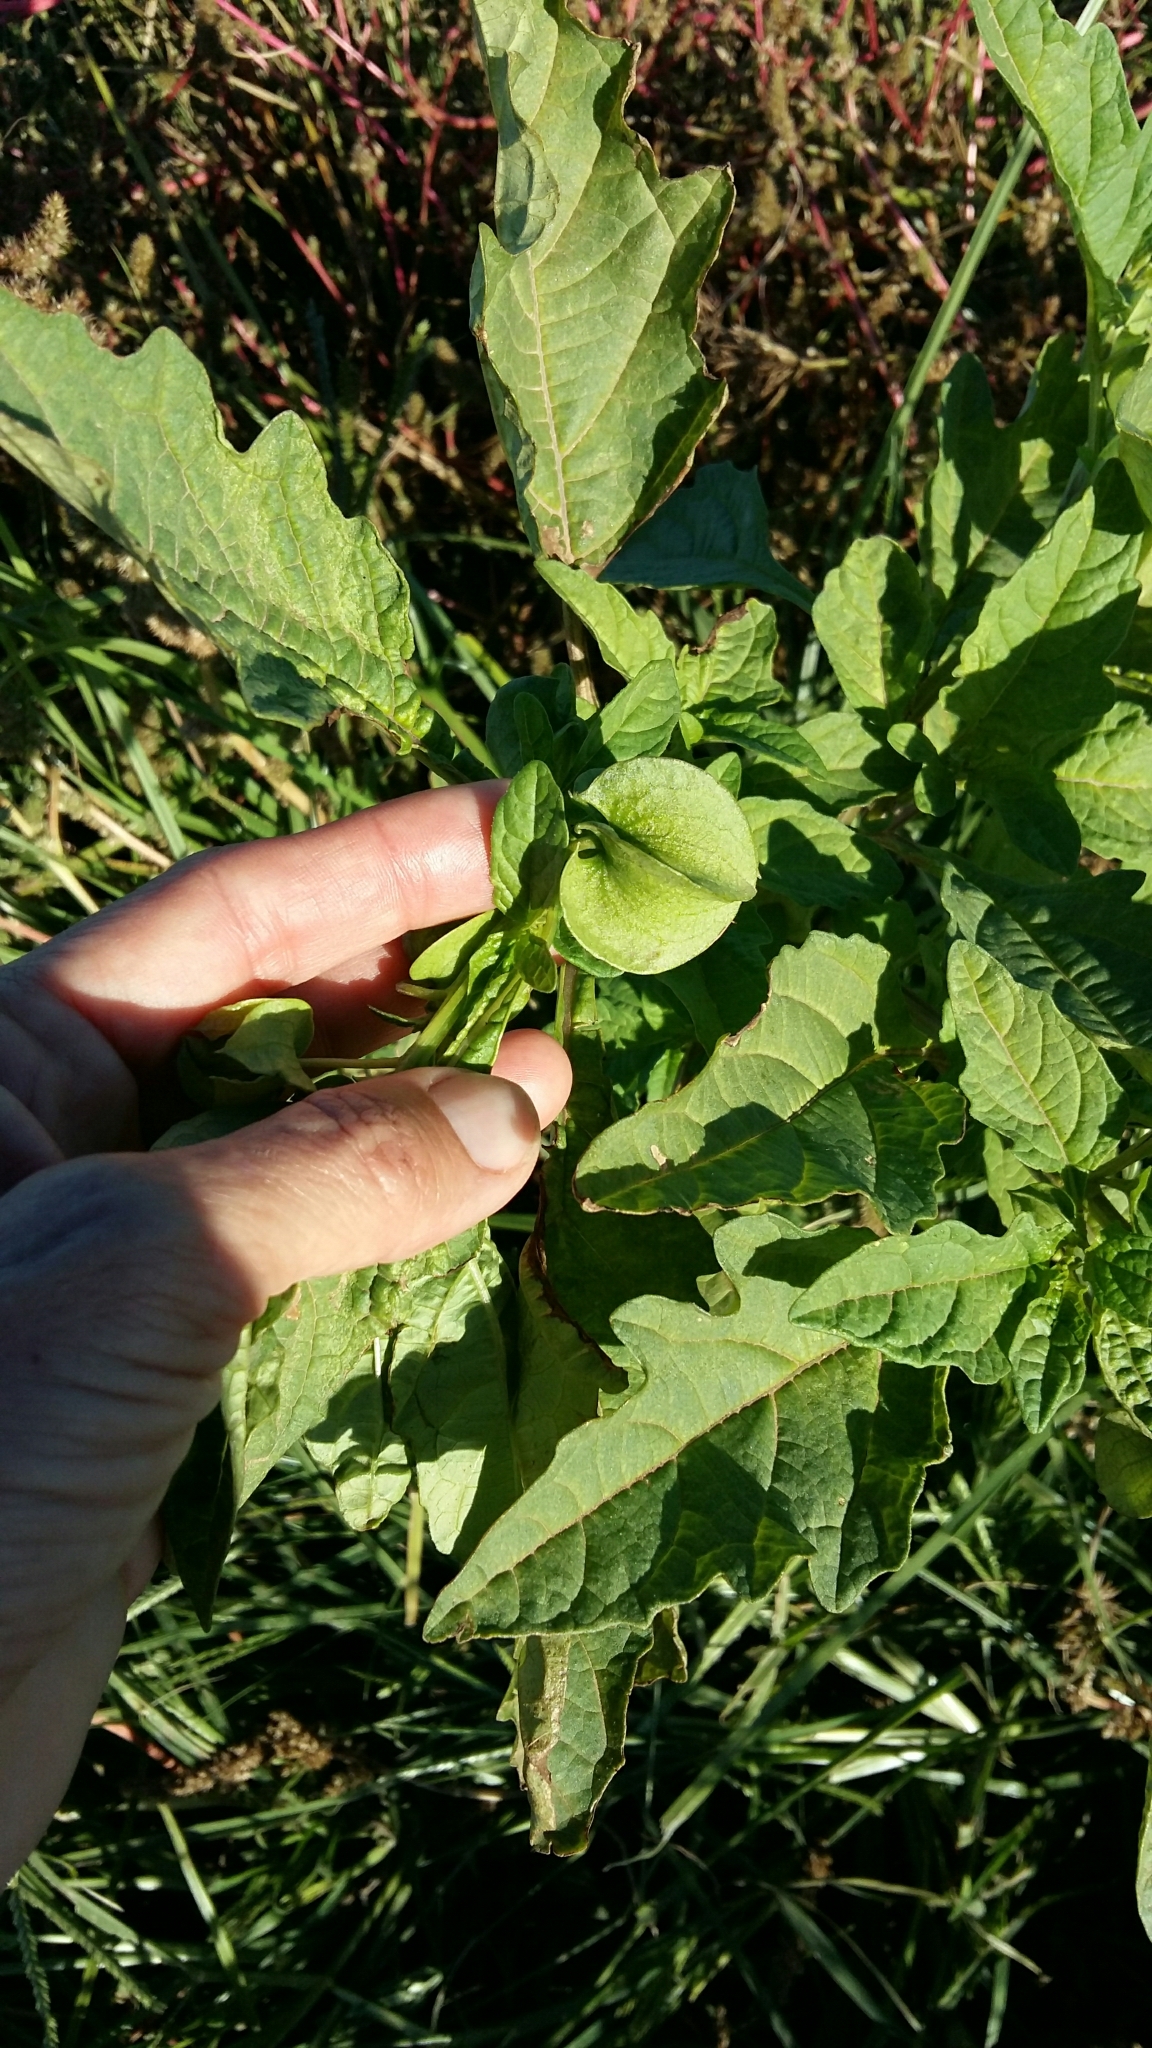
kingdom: Plantae
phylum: Tracheophyta
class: Magnoliopsida
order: Solanales
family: Solanaceae
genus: Nicandra
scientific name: Nicandra physalodes
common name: Apple-of-peru
